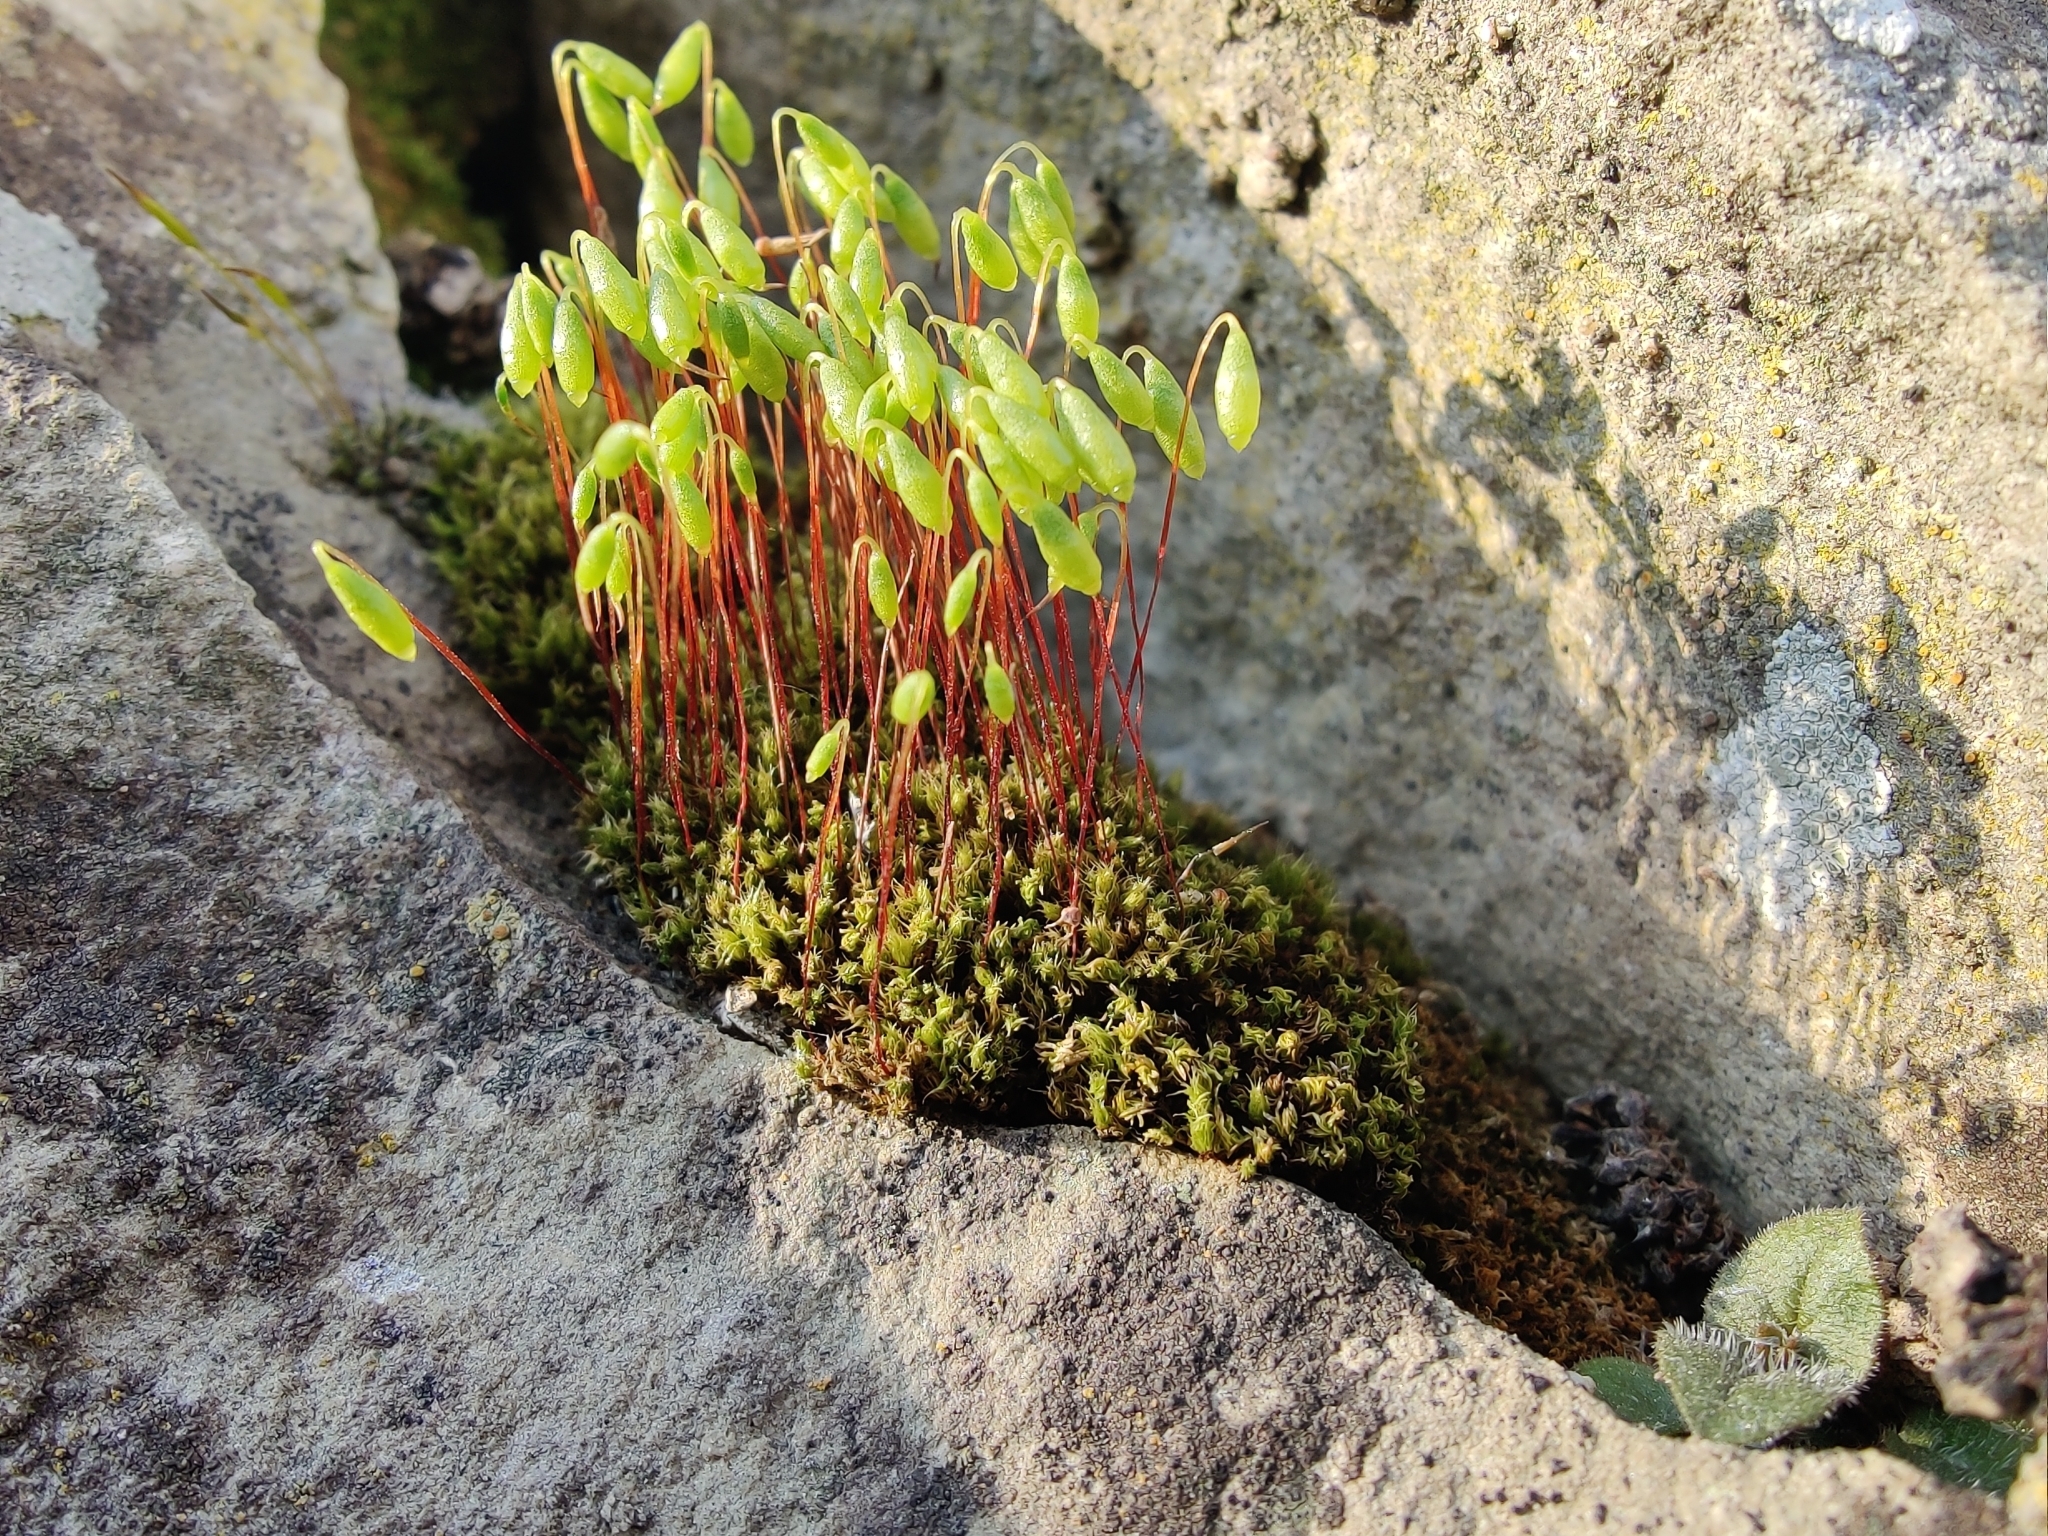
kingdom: Plantae
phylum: Bryophyta
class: Bryopsida
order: Bryales
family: Bryaceae
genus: Rosulabryum
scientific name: Rosulabryum capillare
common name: Capillary thread-moss
